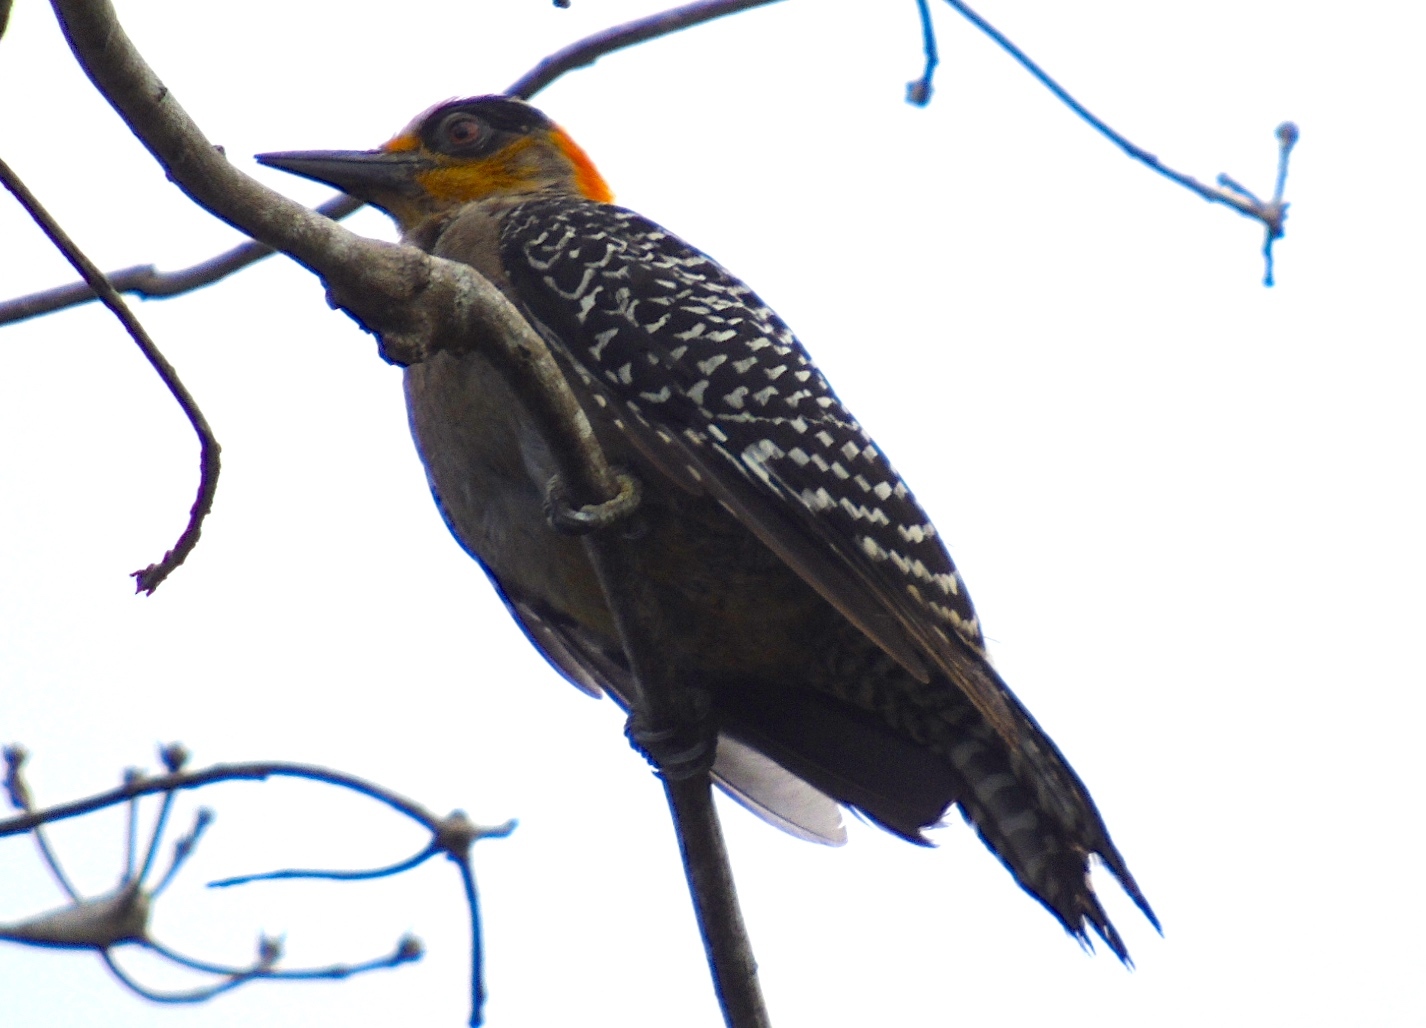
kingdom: Animalia
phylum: Chordata
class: Aves
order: Piciformes
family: Picidae
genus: Melanerpes
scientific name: Melanerpes chrysogenys
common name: Golden-cheeked woodpecker
